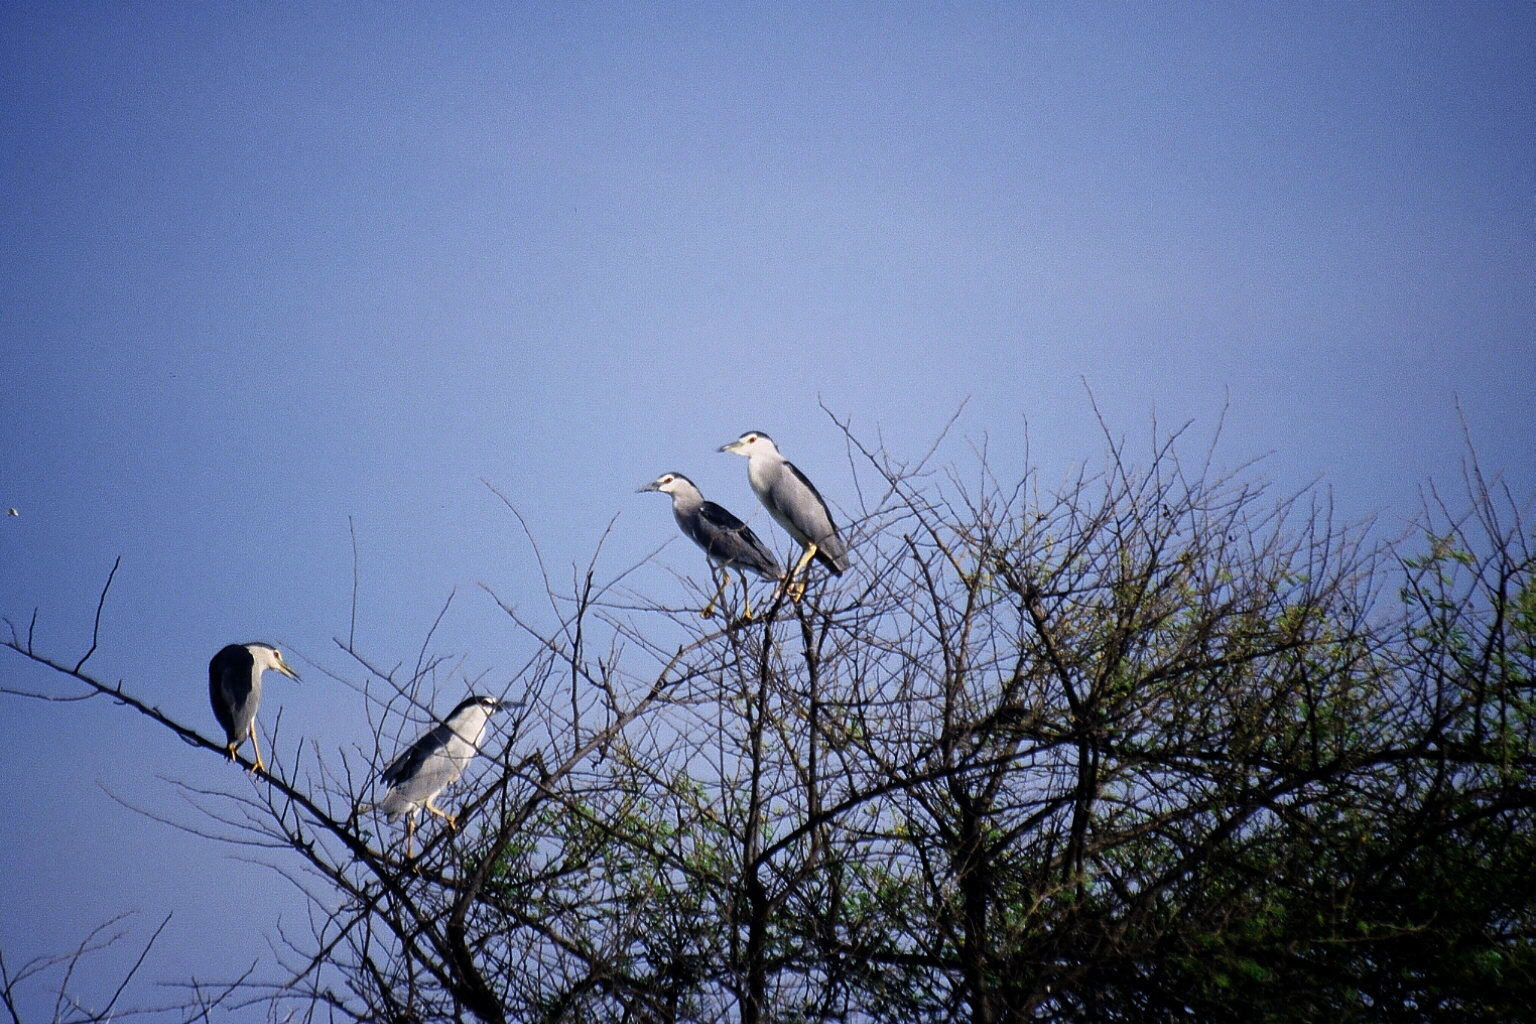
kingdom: Animalia
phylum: Chordata
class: Aves
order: Pelecaniformes
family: Ardeidae
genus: Nycticorax
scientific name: Nycticorax nycticorax
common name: Black-crowned night heron
